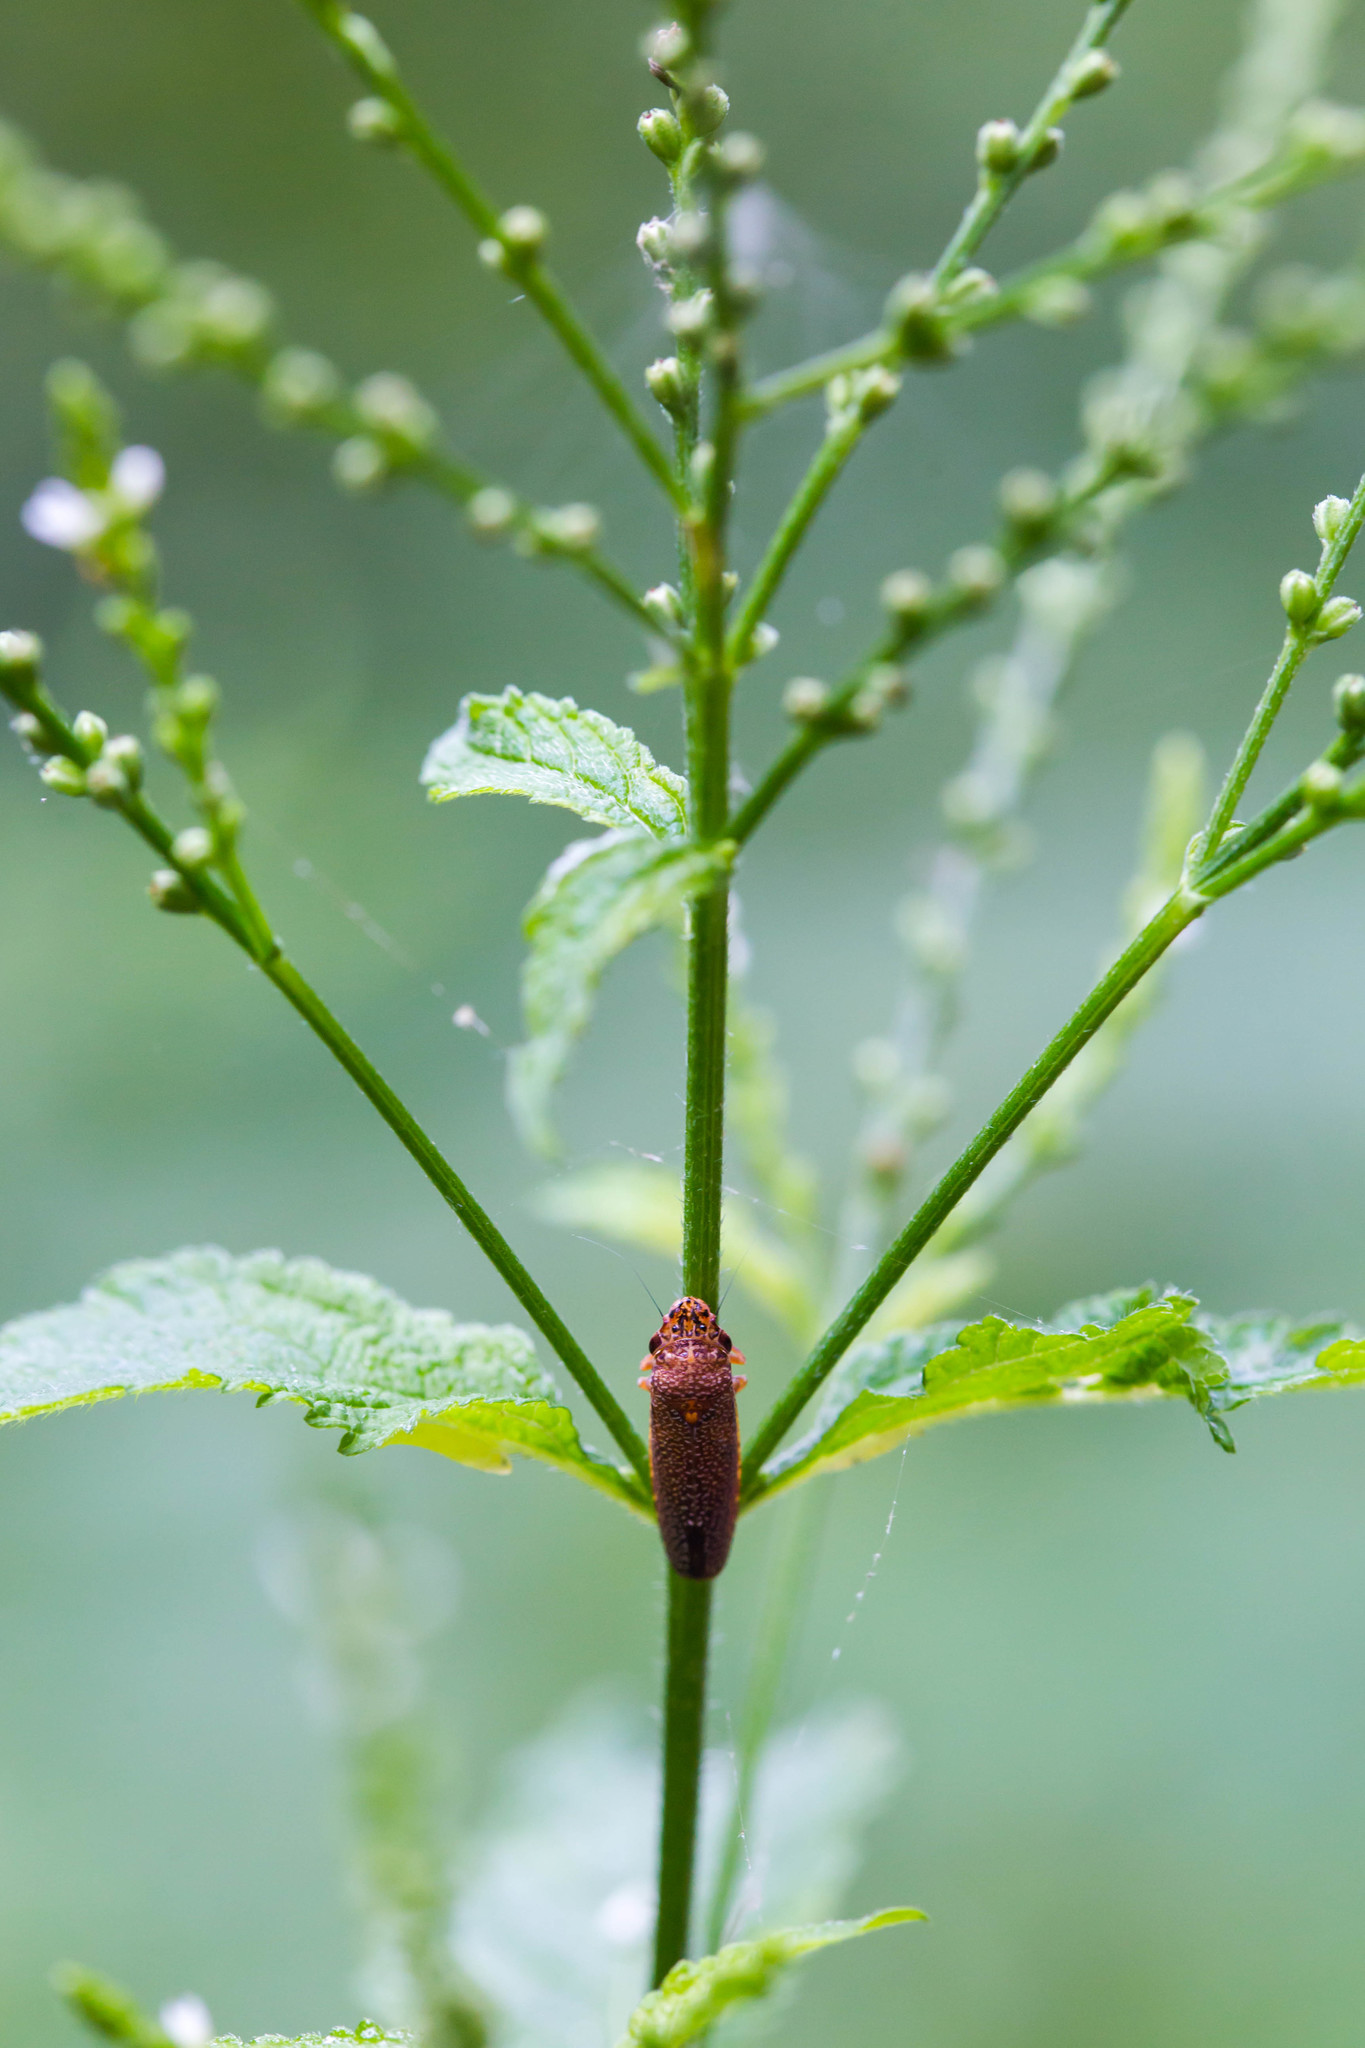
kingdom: Animalia
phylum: Arthropoda
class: Insecta
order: Hemiptera
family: Cicadellidae
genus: Paraulacizes
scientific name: Paraulacizes irrorata
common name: Speckled sharpshooter
